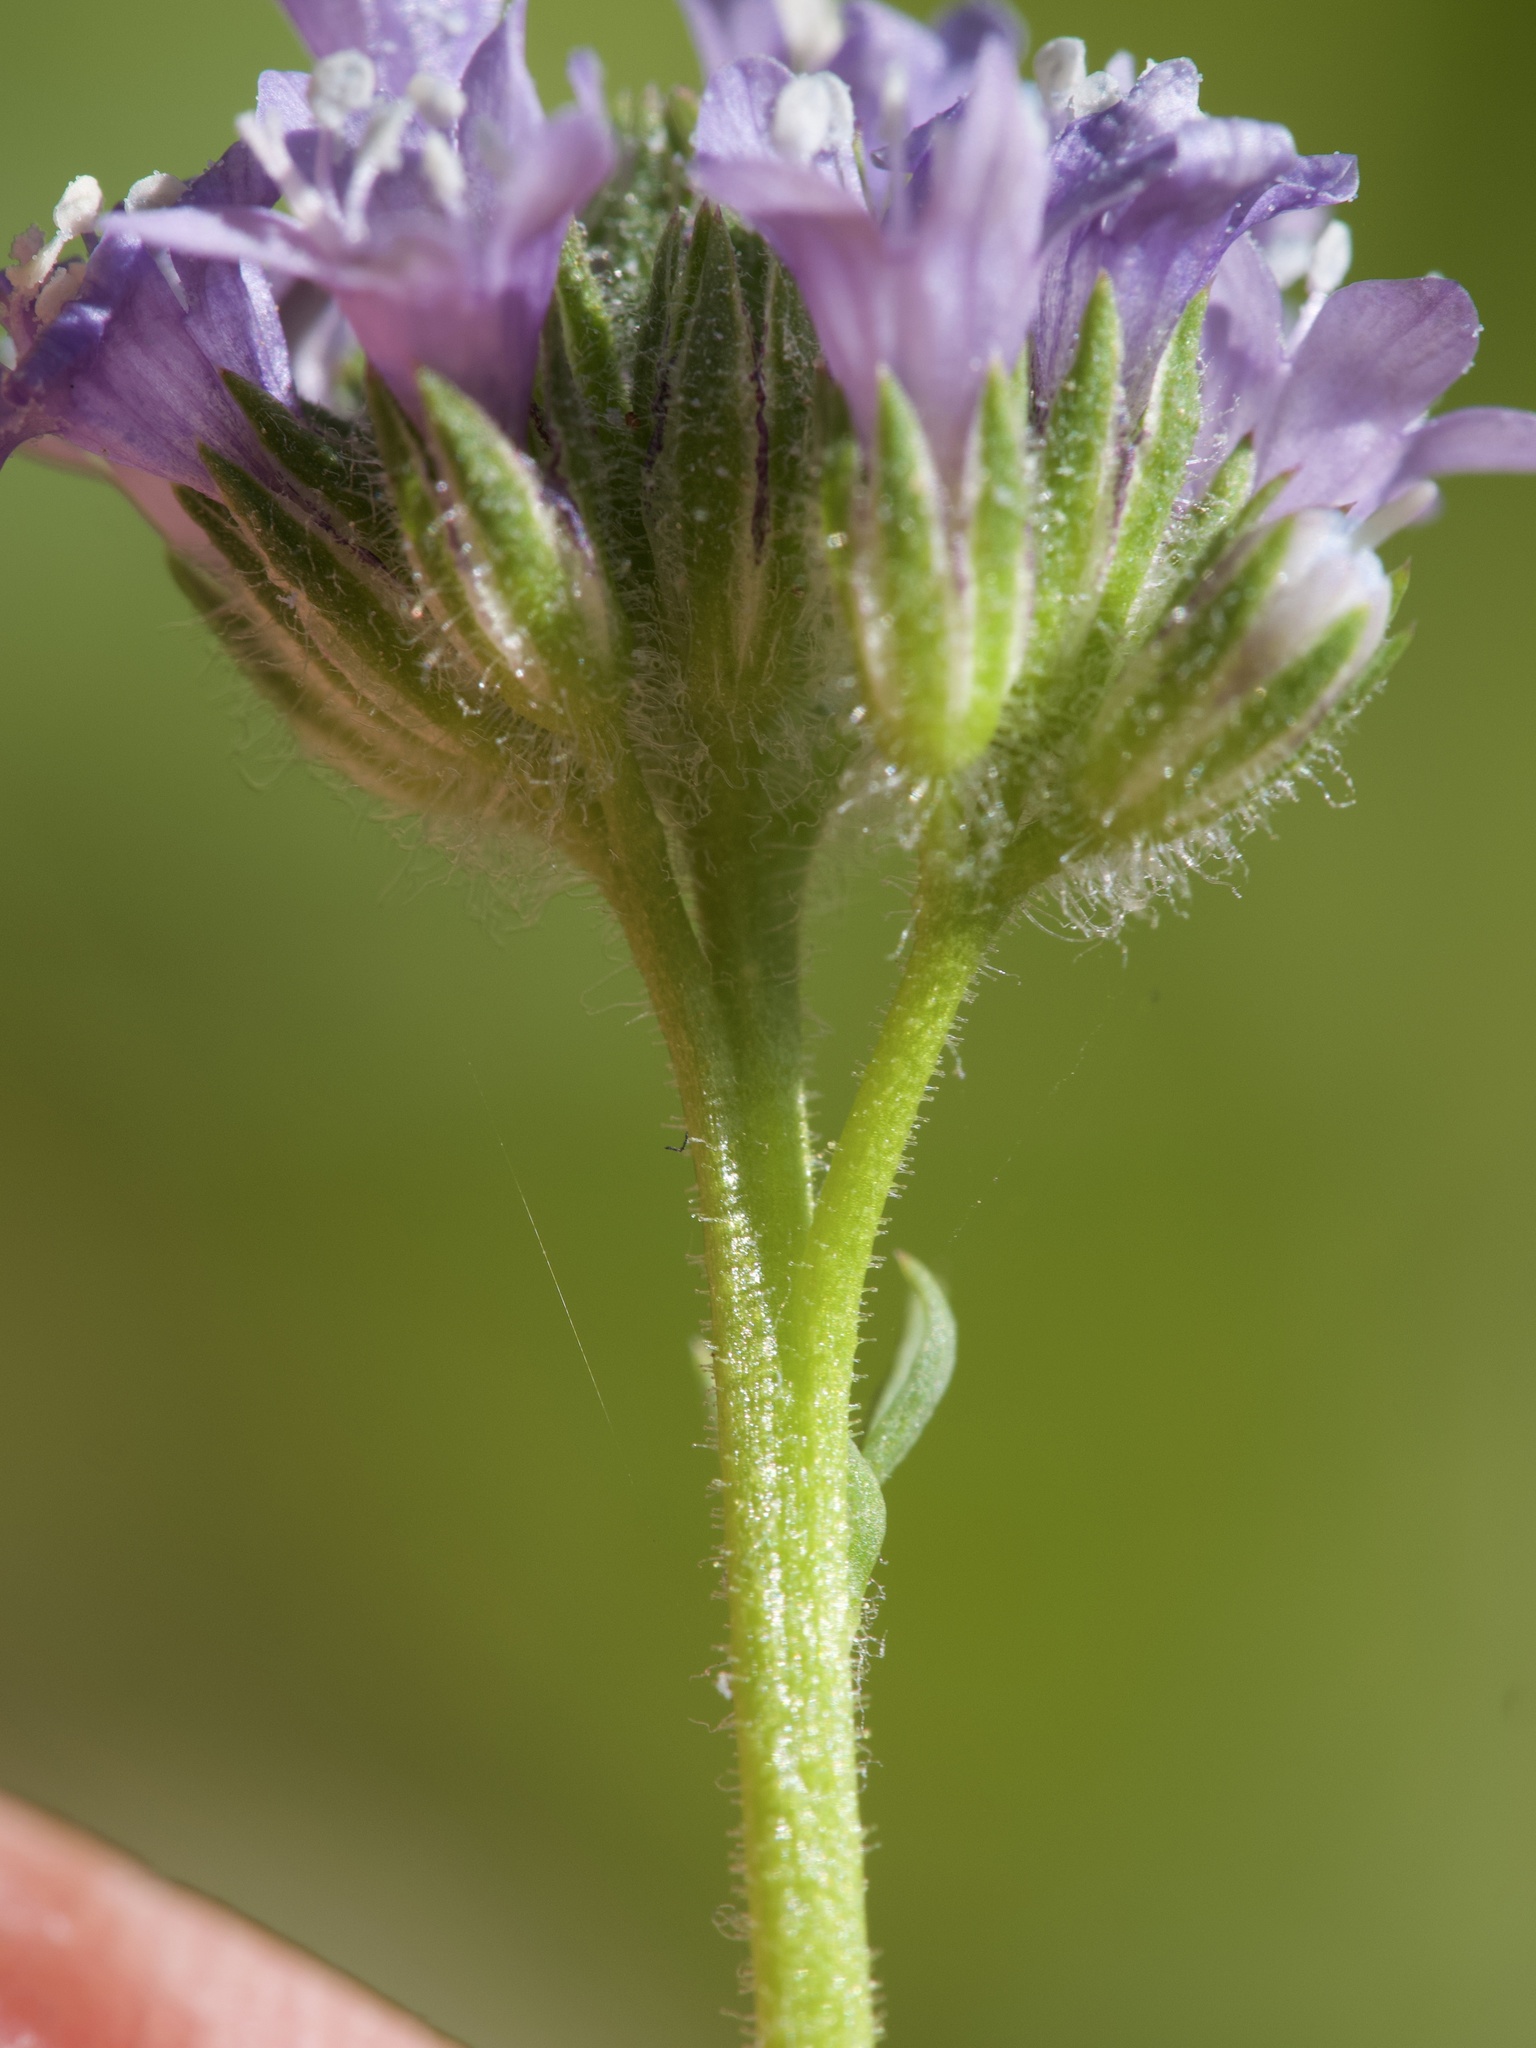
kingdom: Plantae
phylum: Tracheophyta
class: Magnoliopsida
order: Ericales
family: Polemoniaceae
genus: Gilia
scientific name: Gilia achilleifolia
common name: California gily-flower
